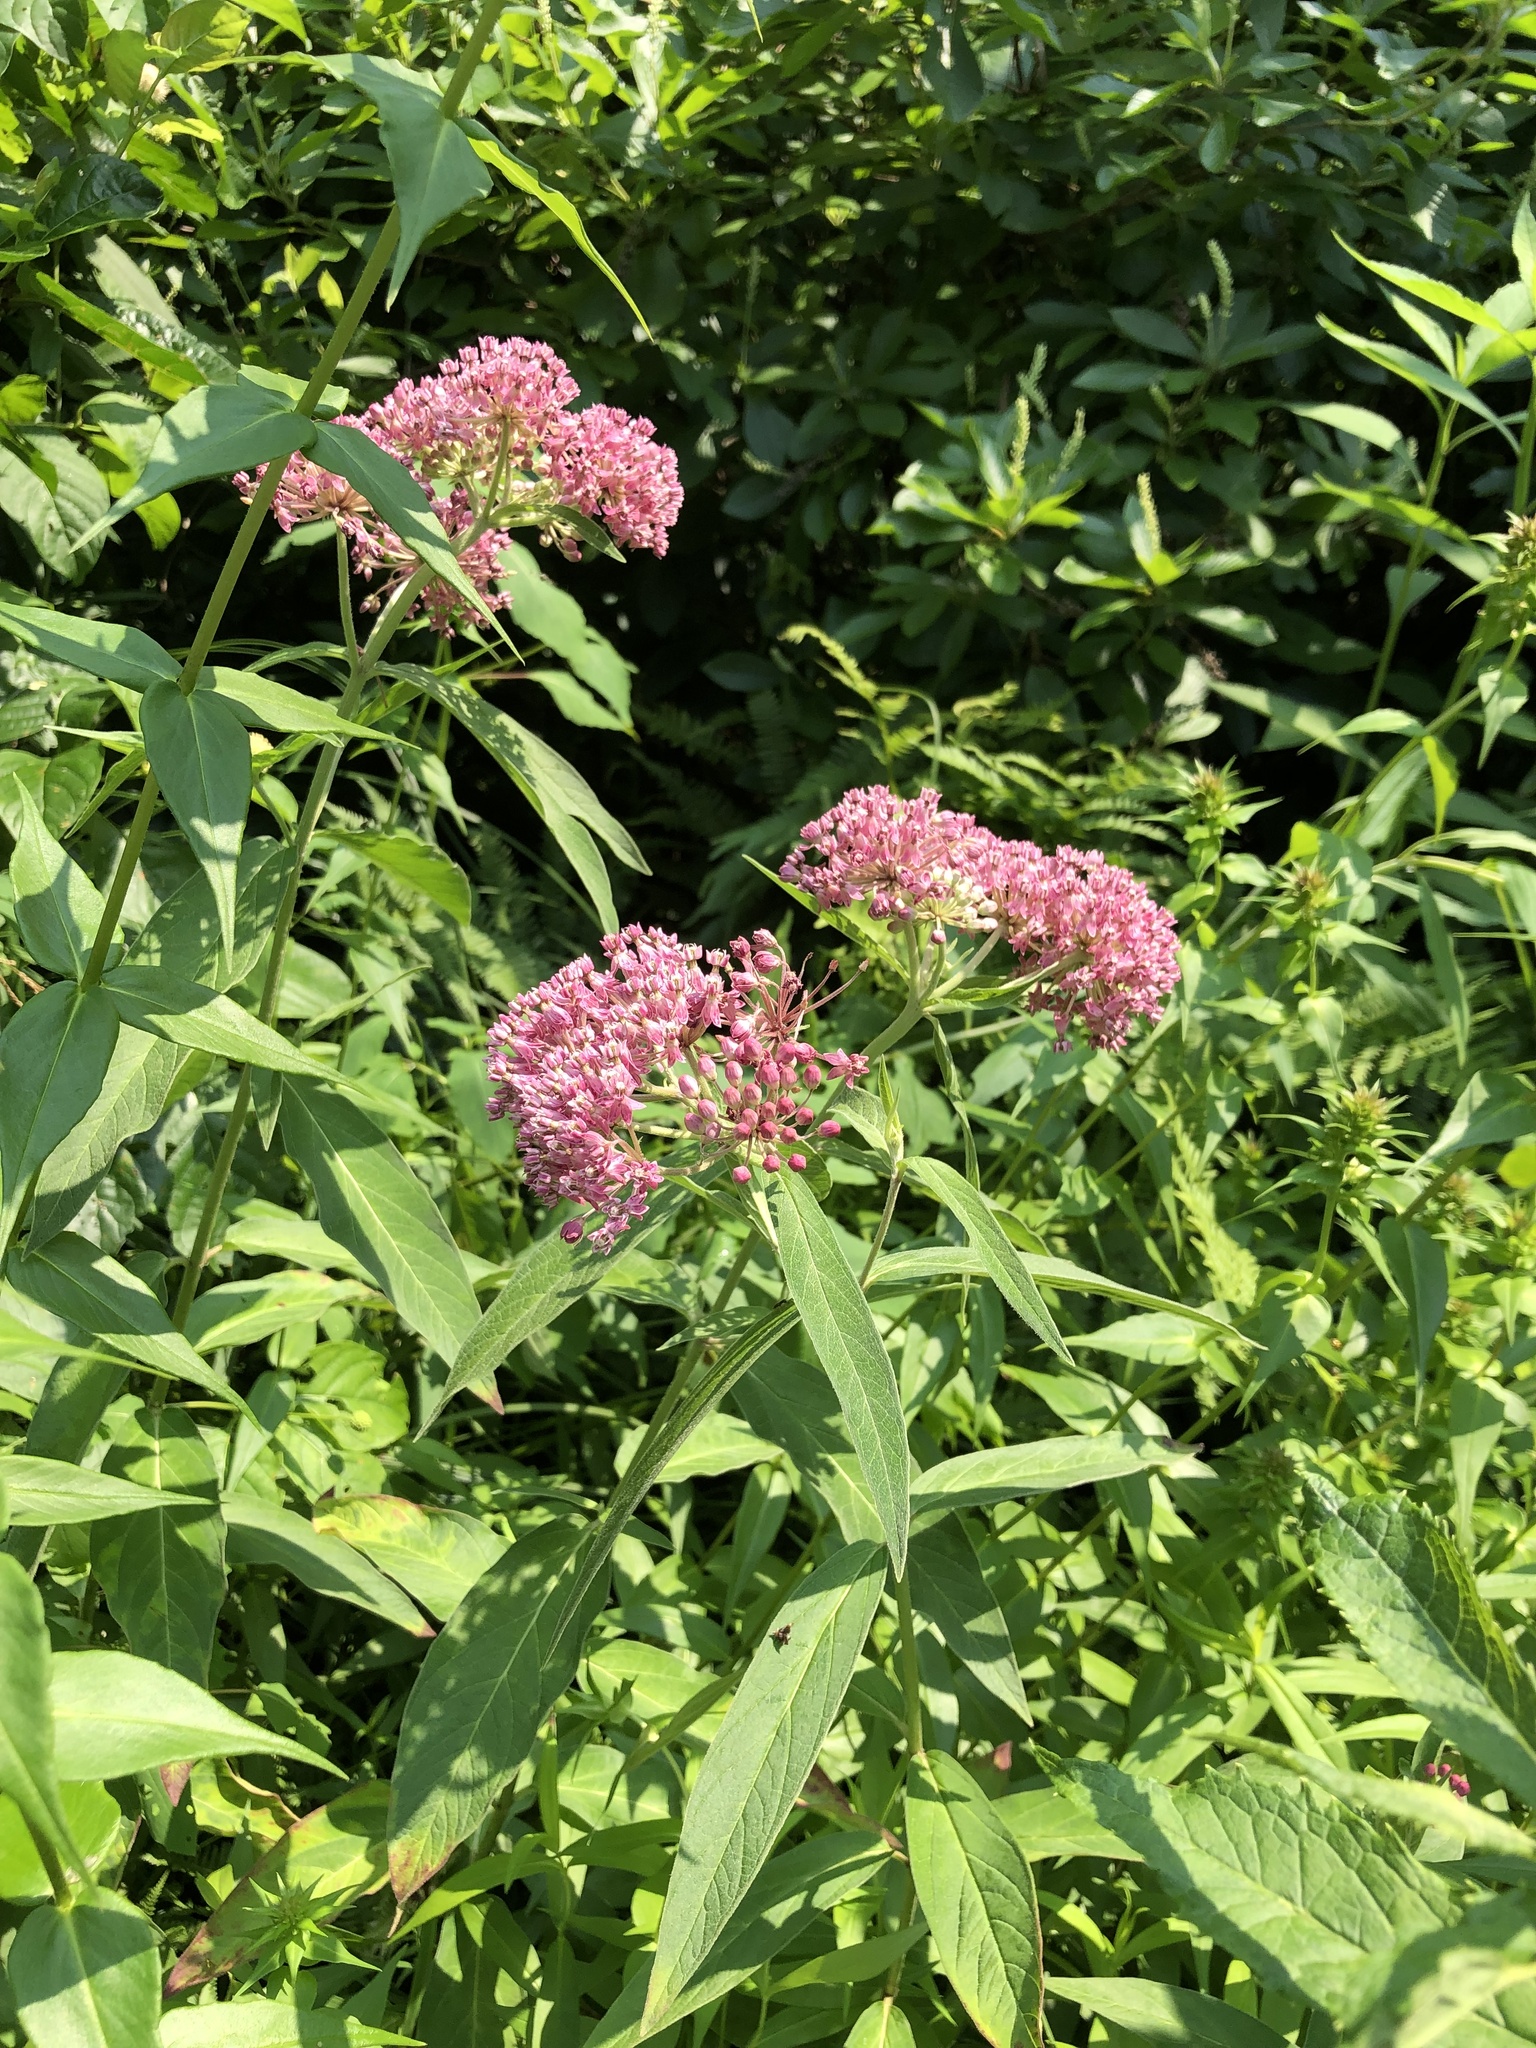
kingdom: Plantae
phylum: Tracheophyta
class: Magnoliopsida
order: Gentianales
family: Apocynaceae
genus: Asclepias
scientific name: Asclepias incarnata
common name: Swamp milkweed
